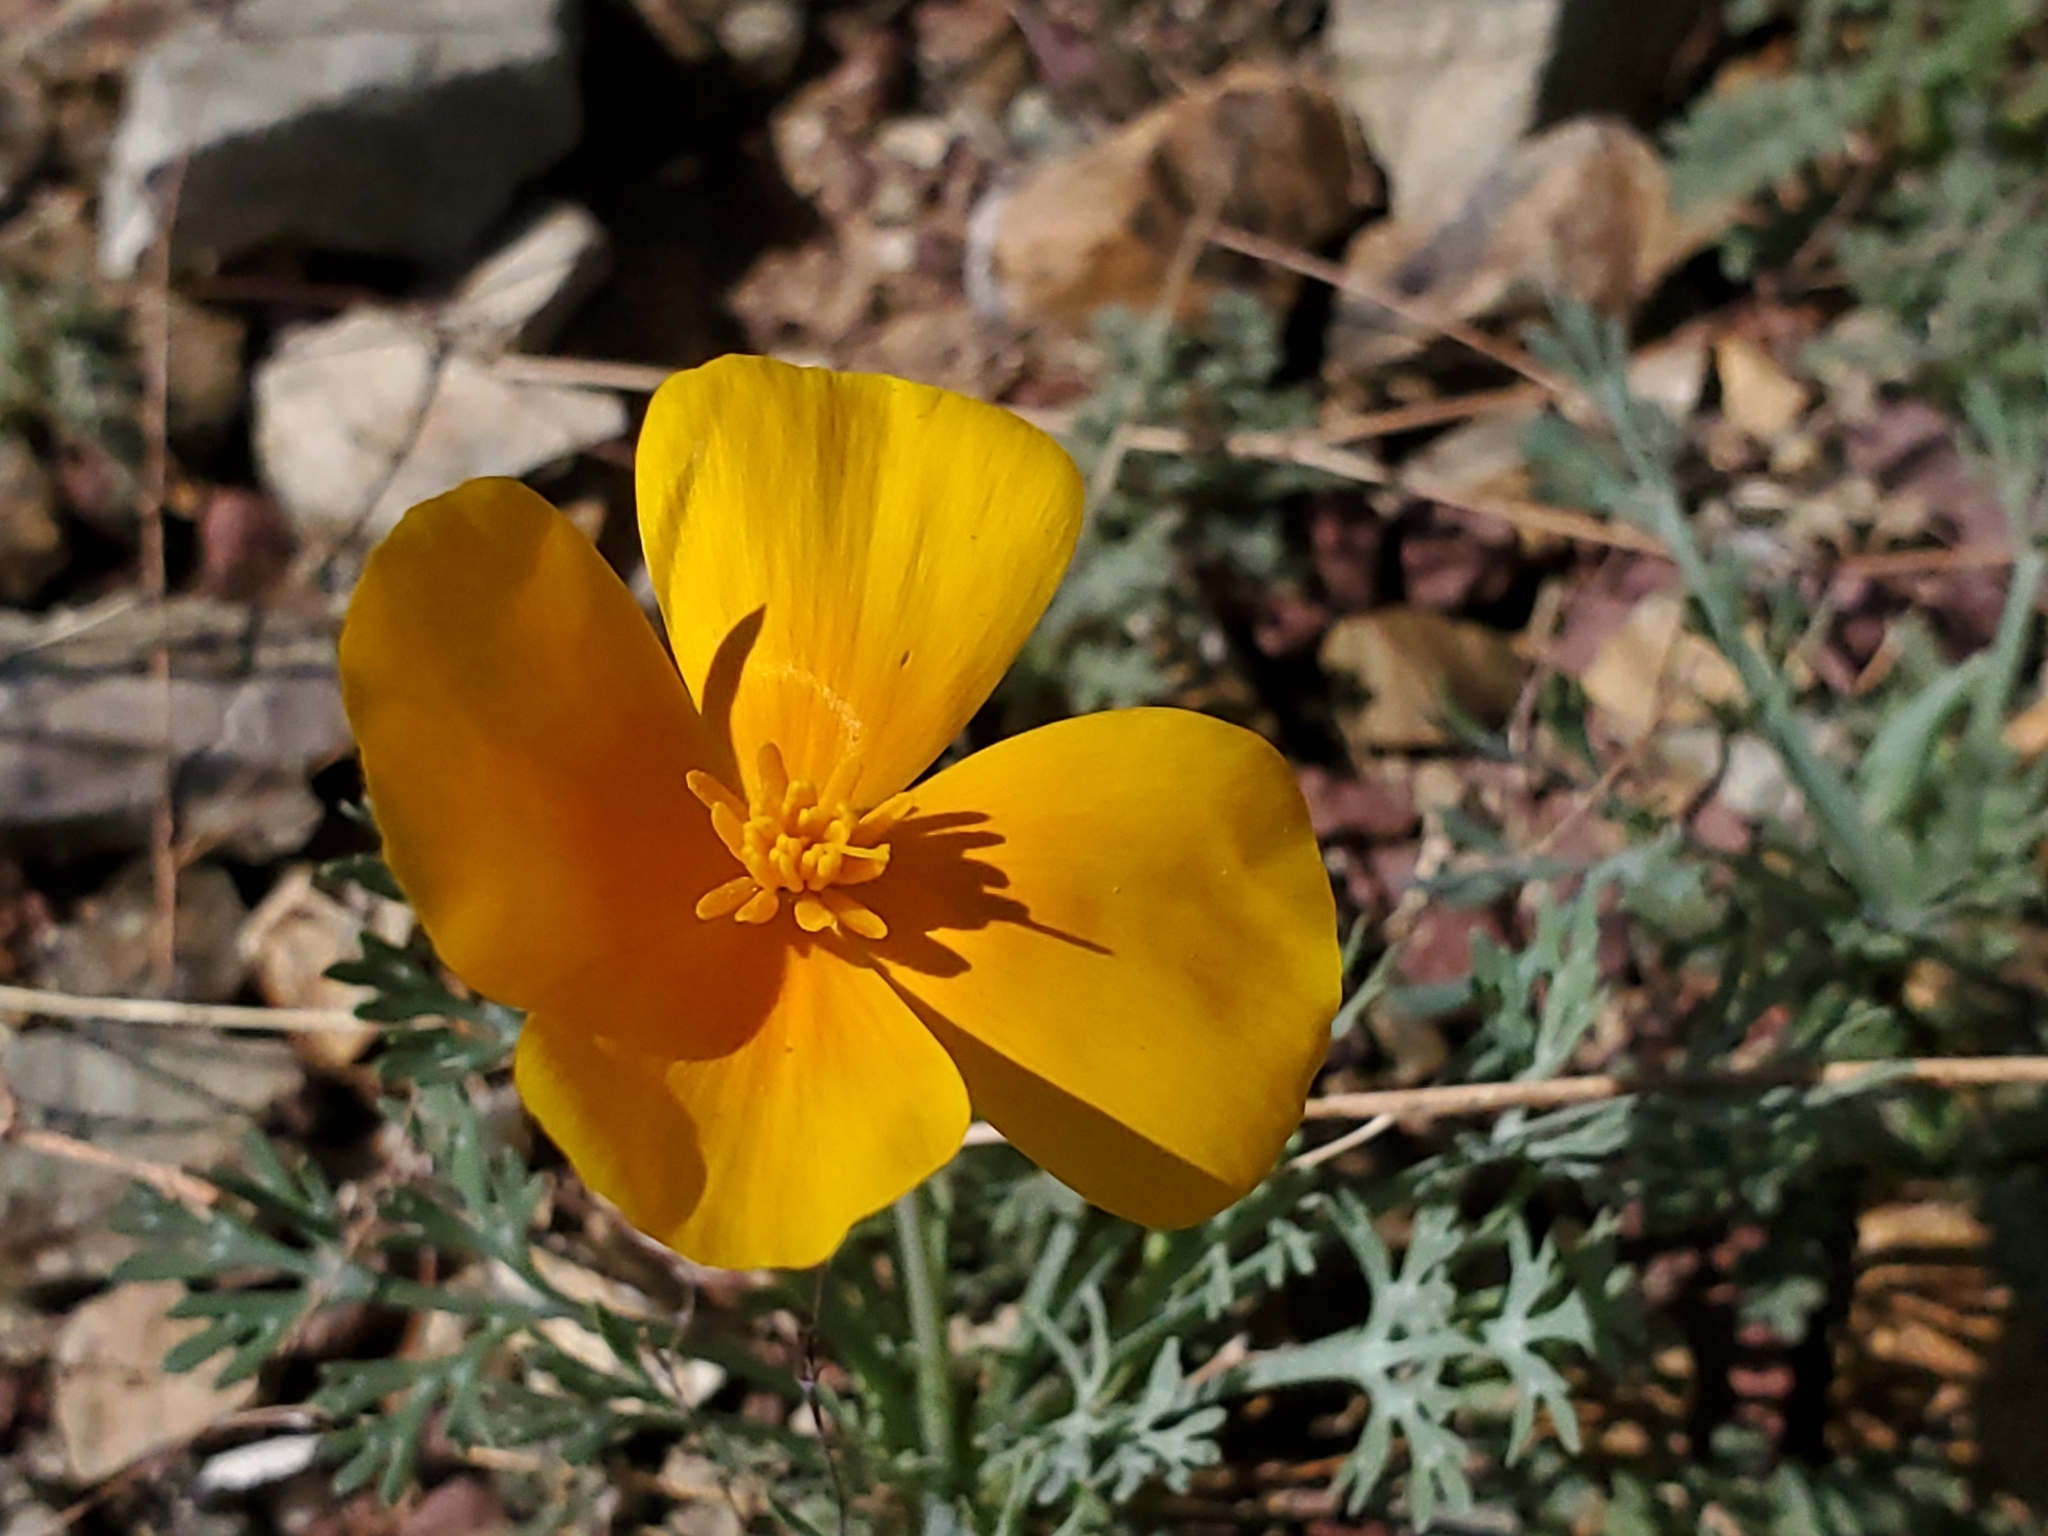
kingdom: Plantae
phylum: Tracheophyta
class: Magnoliopsida
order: Ranunculales
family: Papaveraceae
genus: Eschscholzia
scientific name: Eschscholzia californica
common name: California poppy
